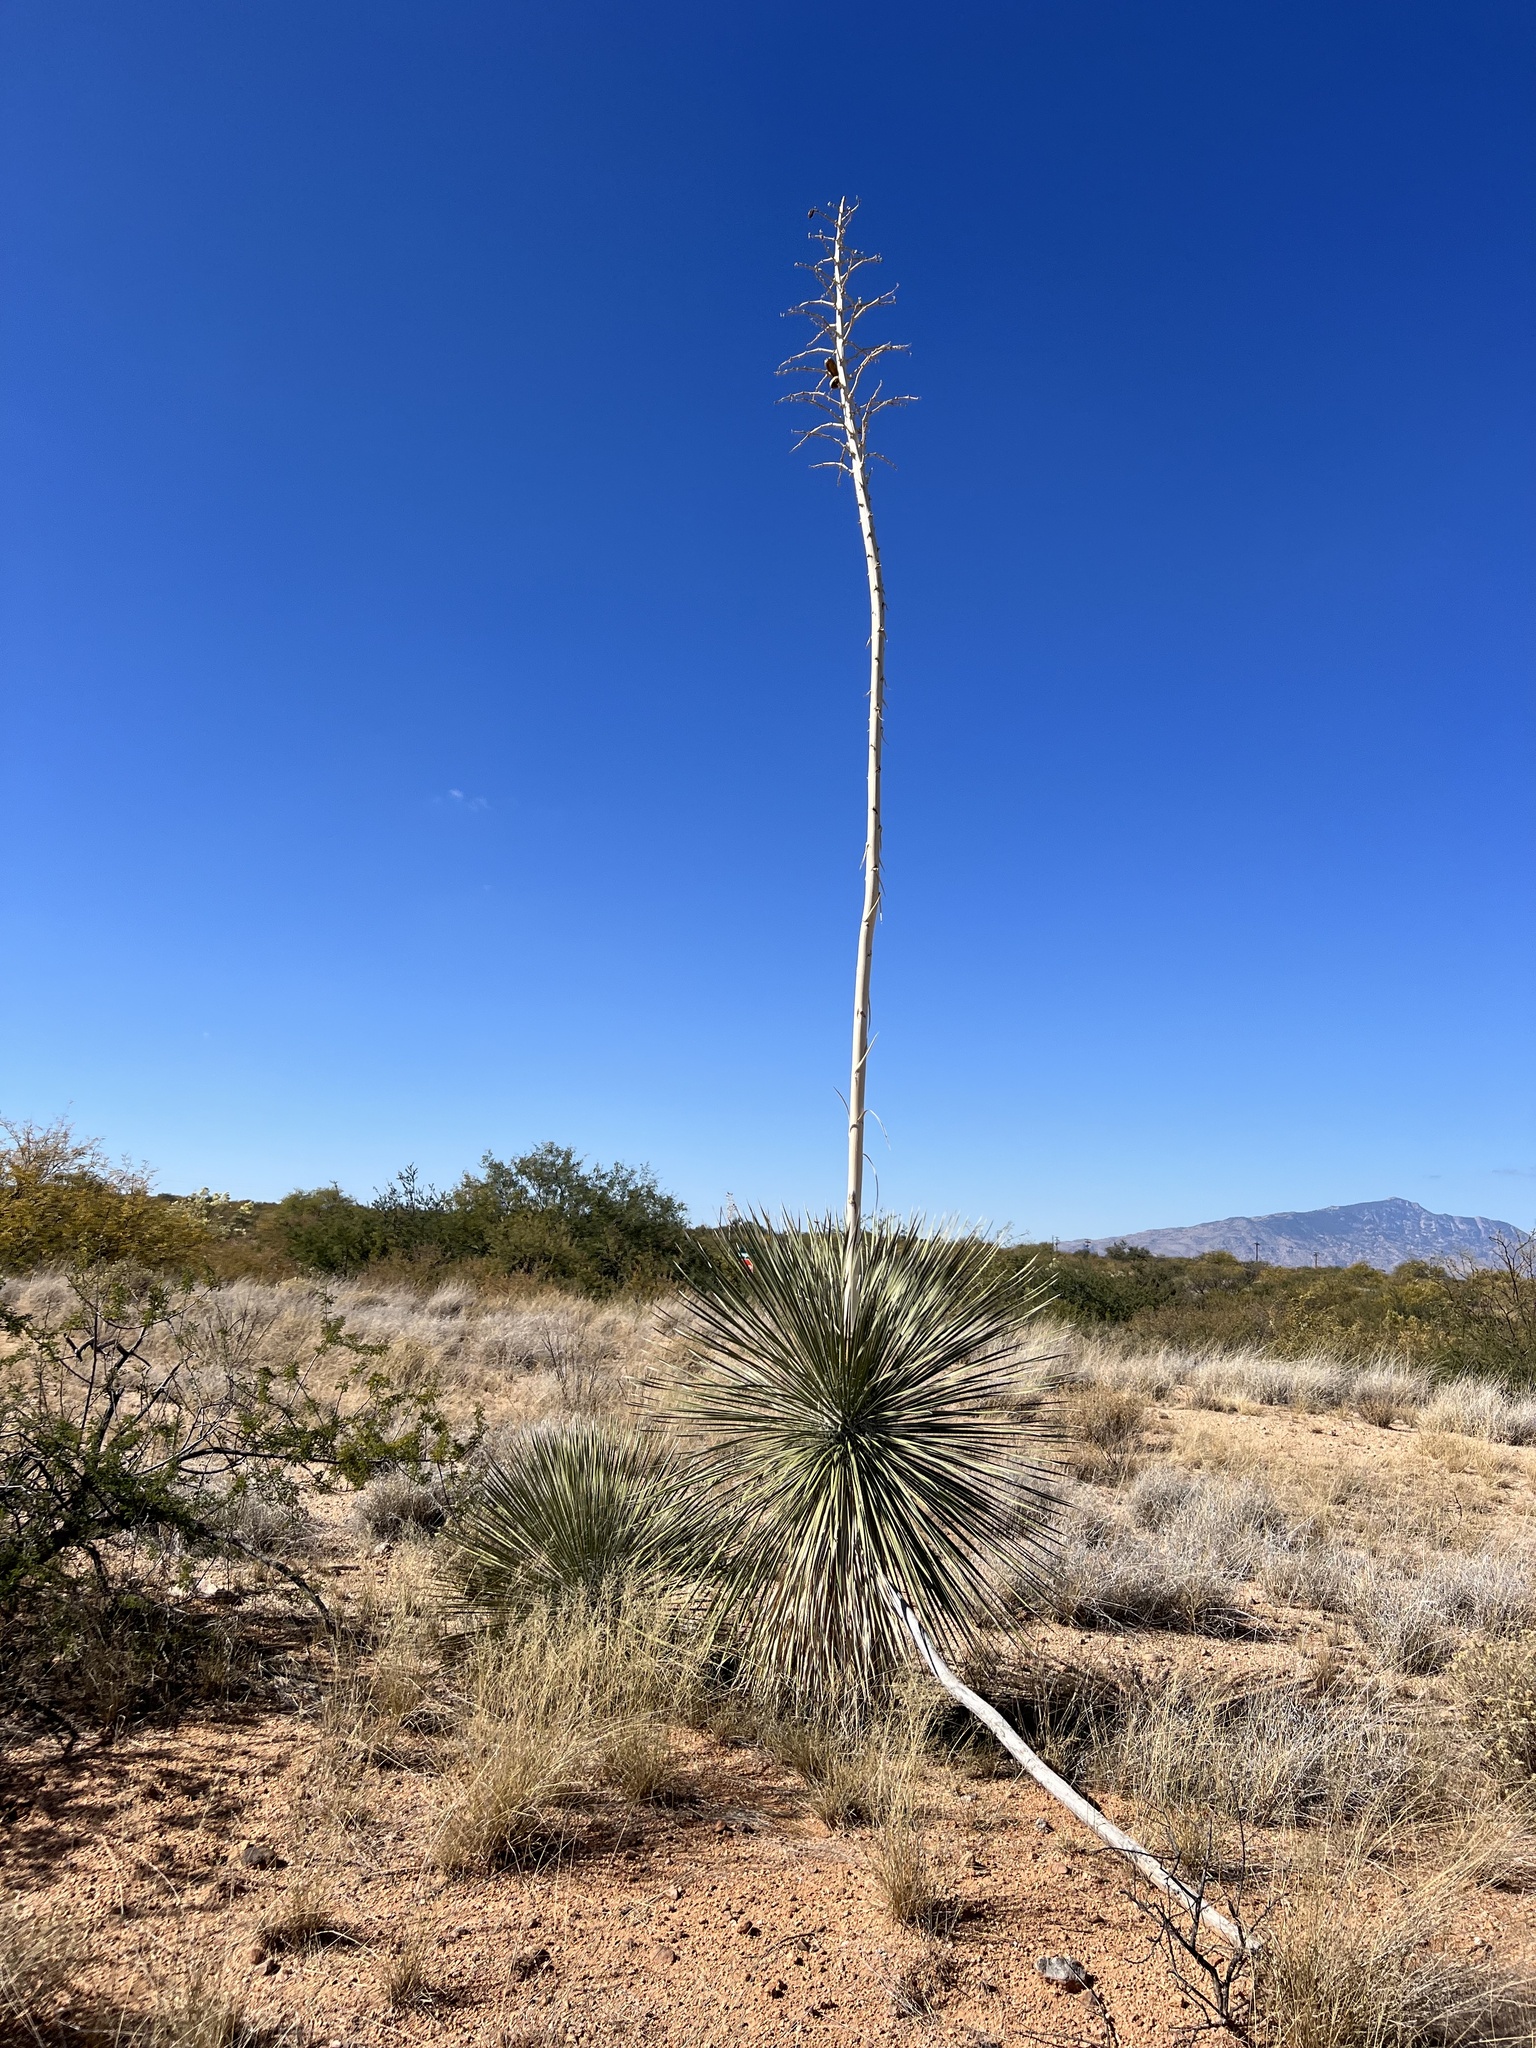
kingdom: Plantae
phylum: Tracheophyta
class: Liliopsida
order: Asparagales
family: Asparagaceae
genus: Yucca
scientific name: Yucca elata
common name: Palmella
